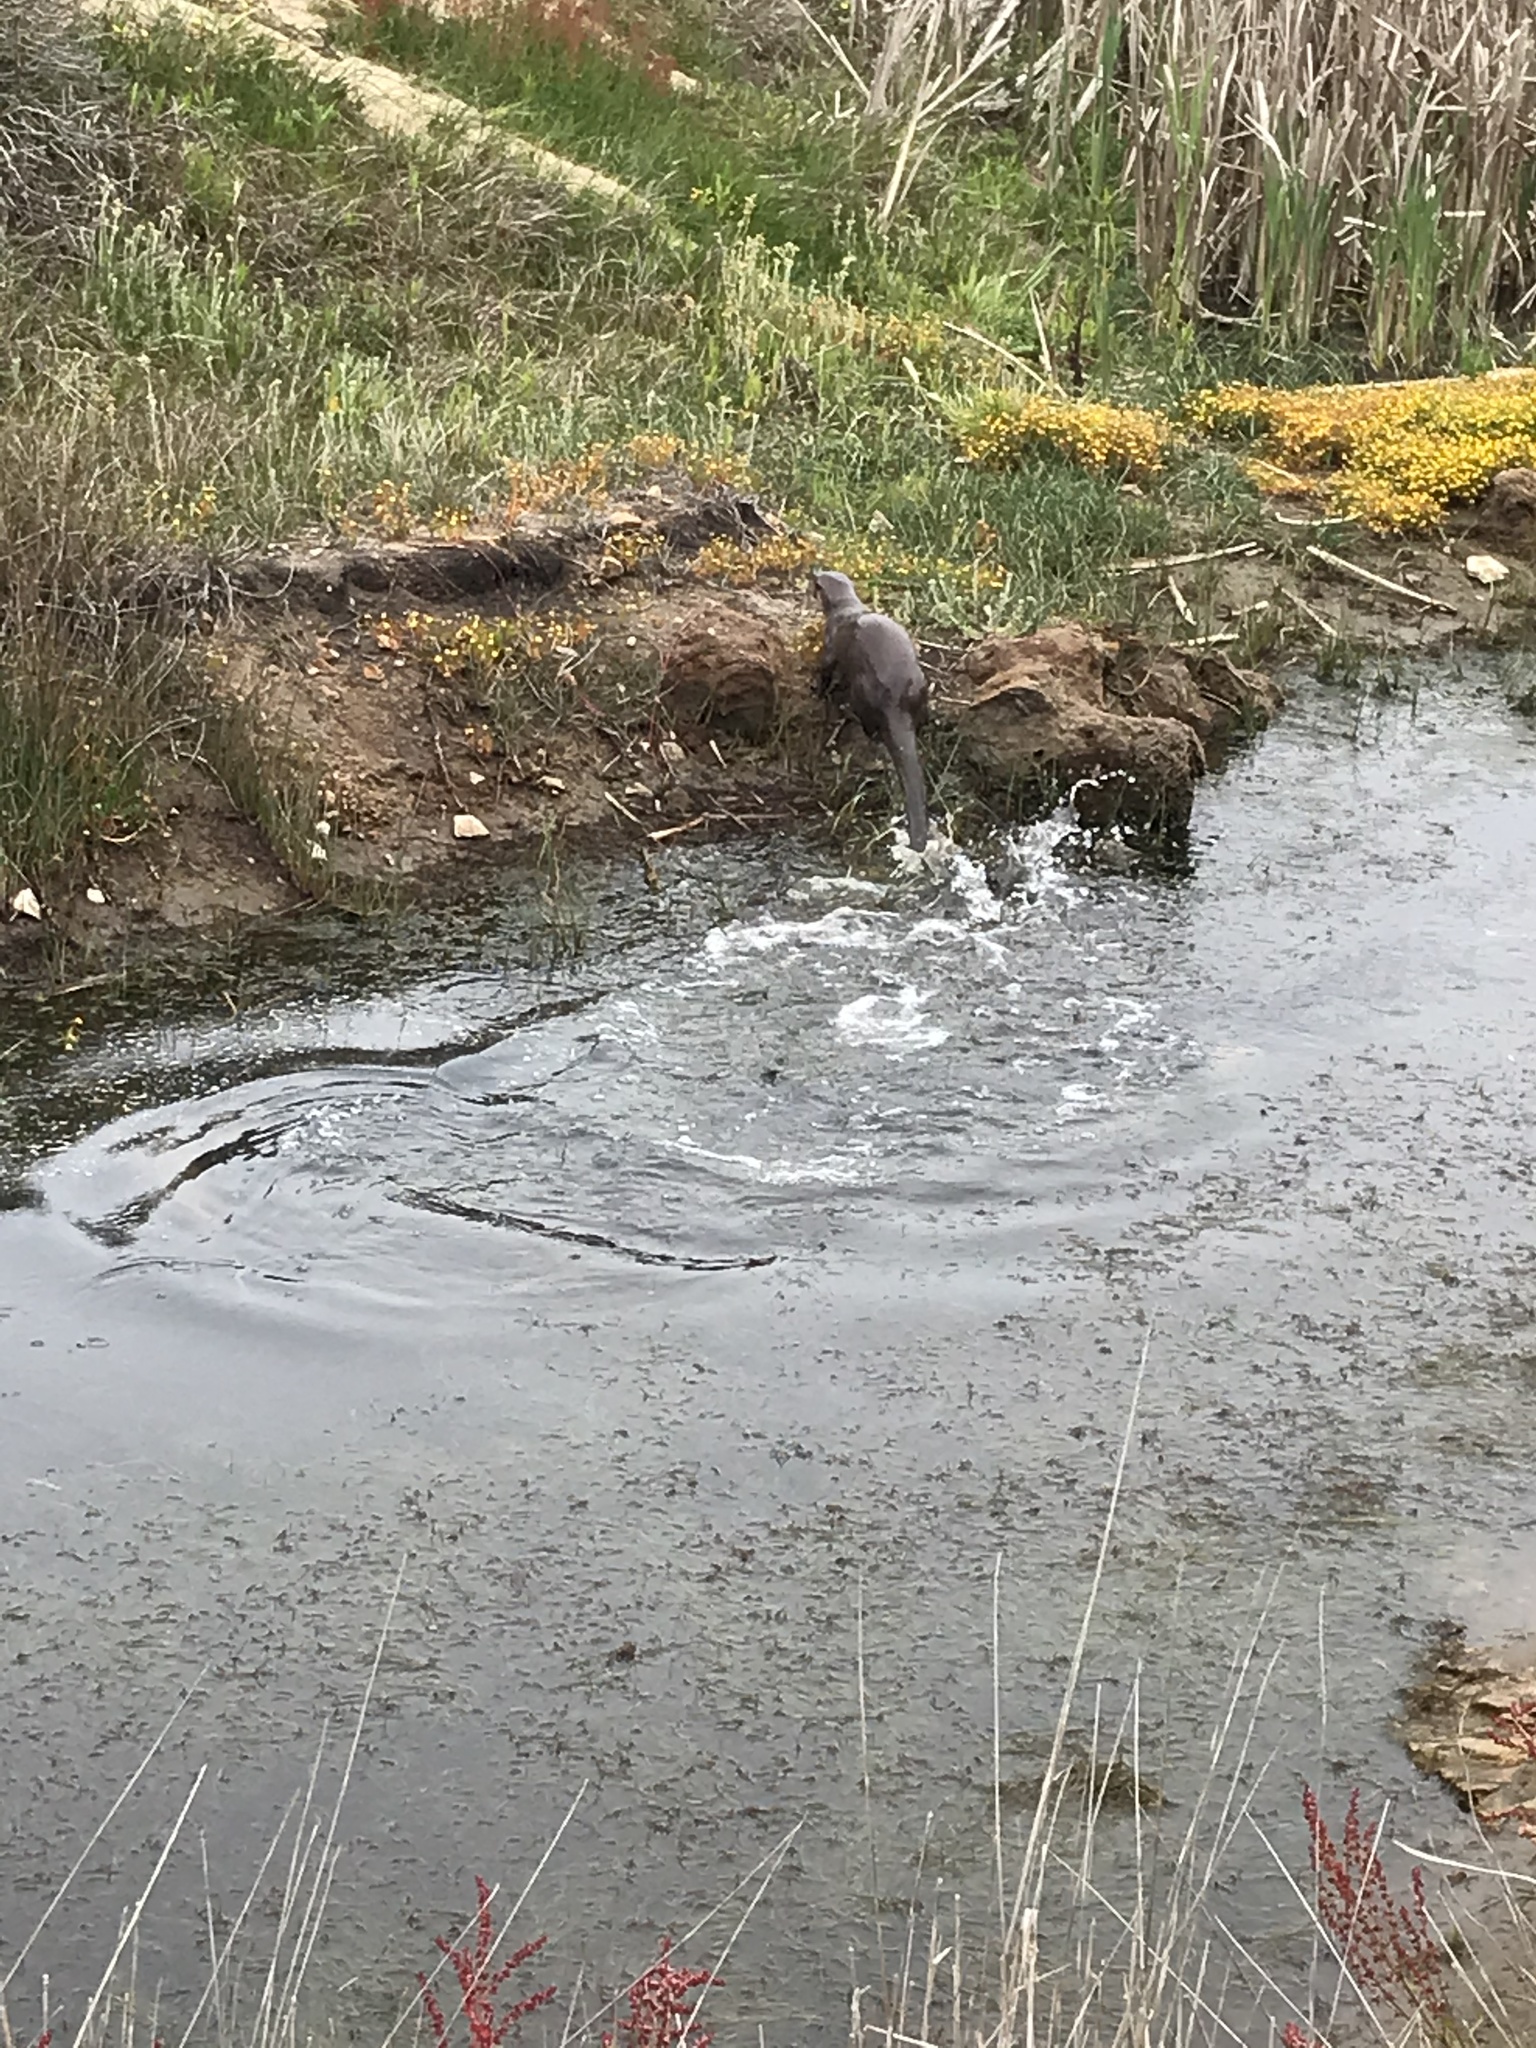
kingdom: Animalia
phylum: Chordata
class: Mammalia
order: Carnivora
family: Mustelidae
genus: Lontra
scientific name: Lontra canadensis
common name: North american river otter
